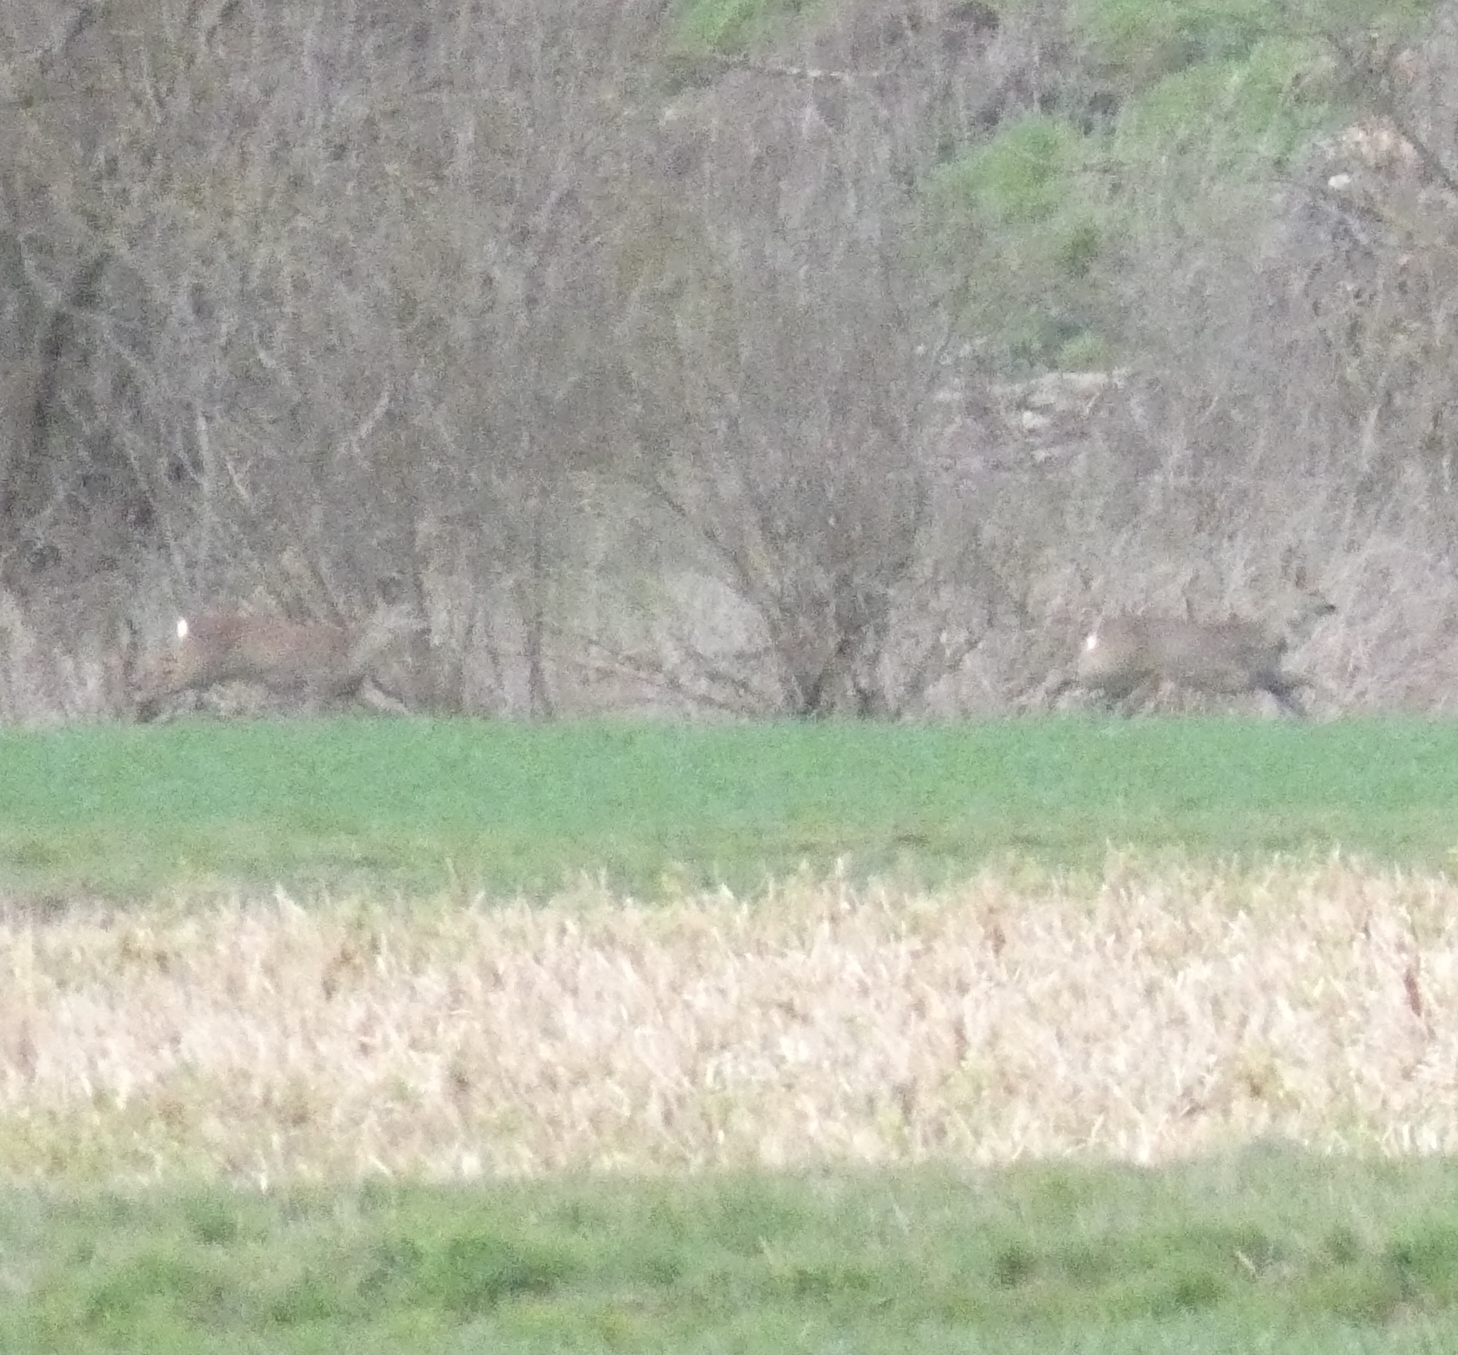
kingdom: Animalia
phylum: Chordata
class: Mammalia
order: Artiodactyla
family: Cervidae
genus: Capreolus
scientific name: Capreolus capreolus
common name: Western roe deer
